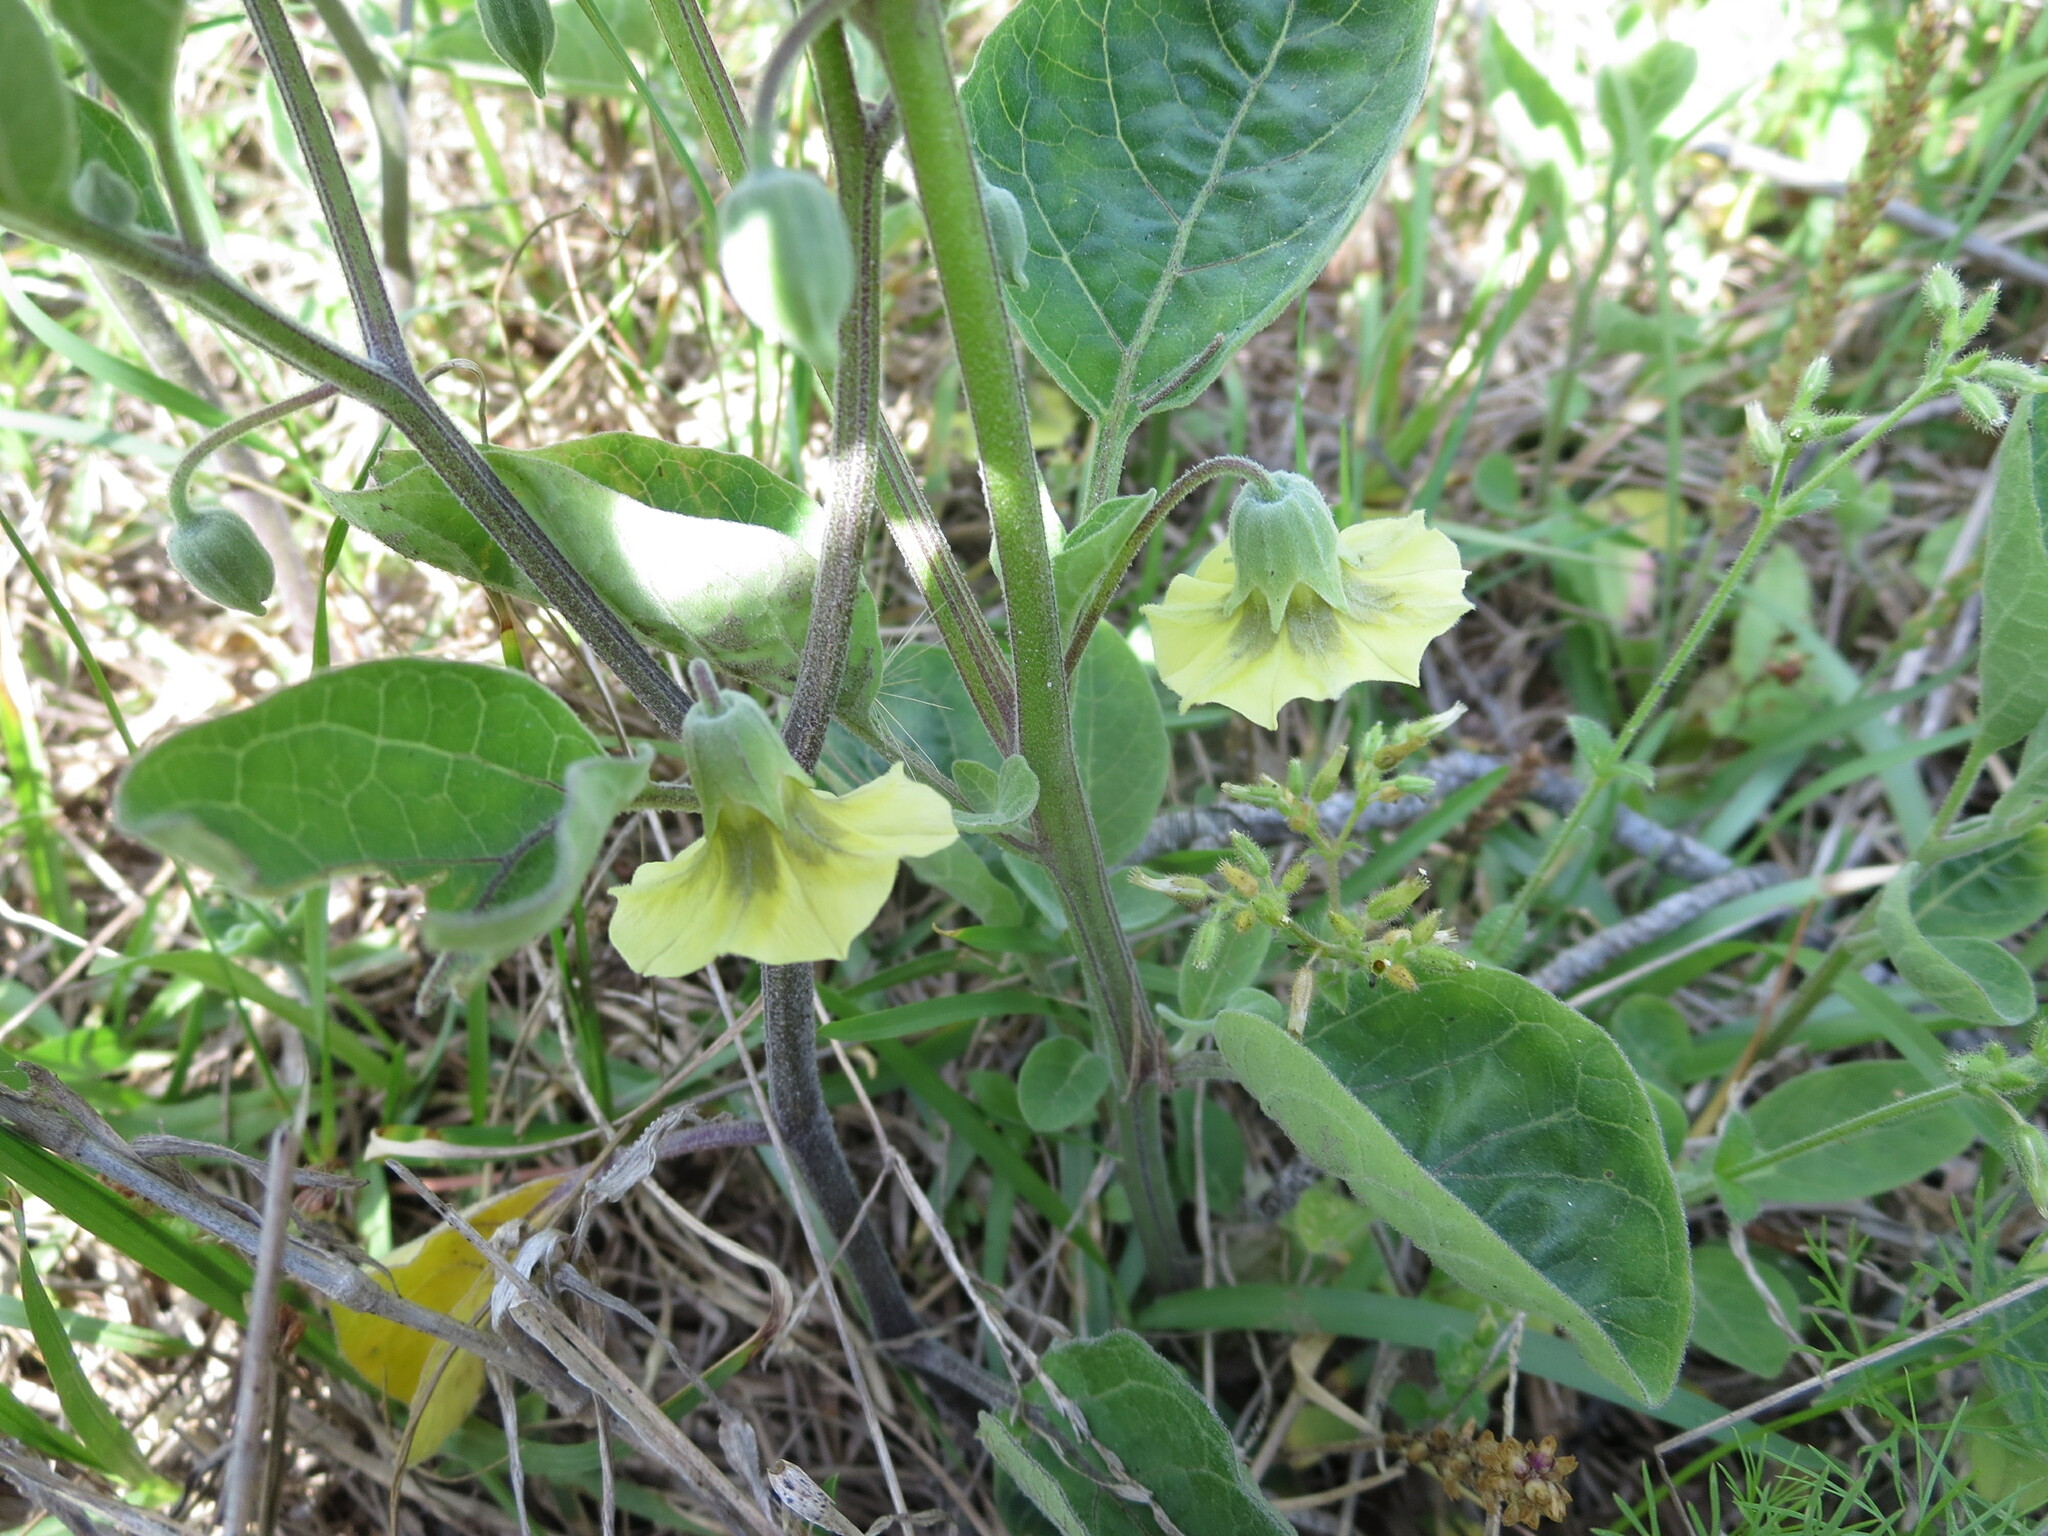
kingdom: Plantae
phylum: Tracheophyta
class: Magnoliopsida
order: Solanales
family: Solanaceae
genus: Physalis
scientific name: Physalis walteri
